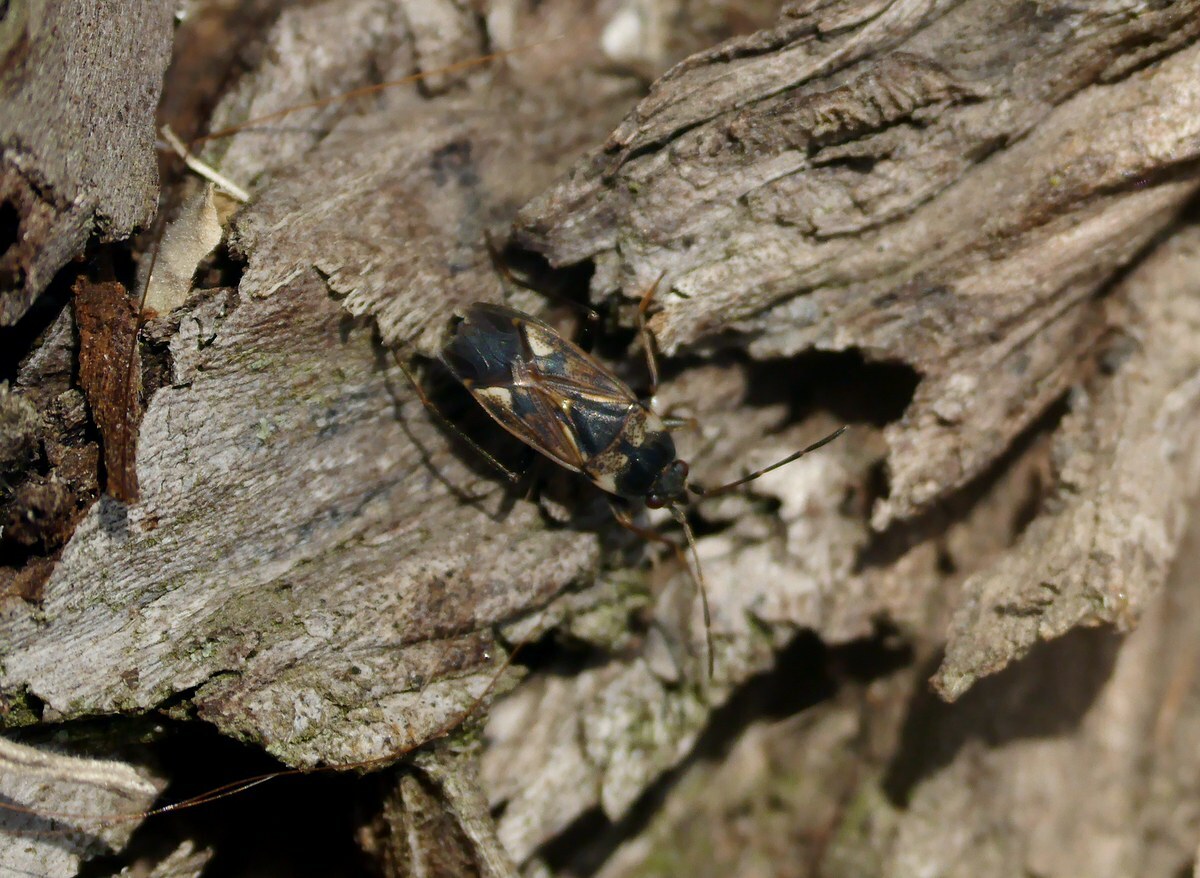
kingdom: Animalia
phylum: Arthropoda
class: Insecta
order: Hemiptera
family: Rhyparochromidae
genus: Rhyparochromus
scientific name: Rhyparochromus vulgaris
